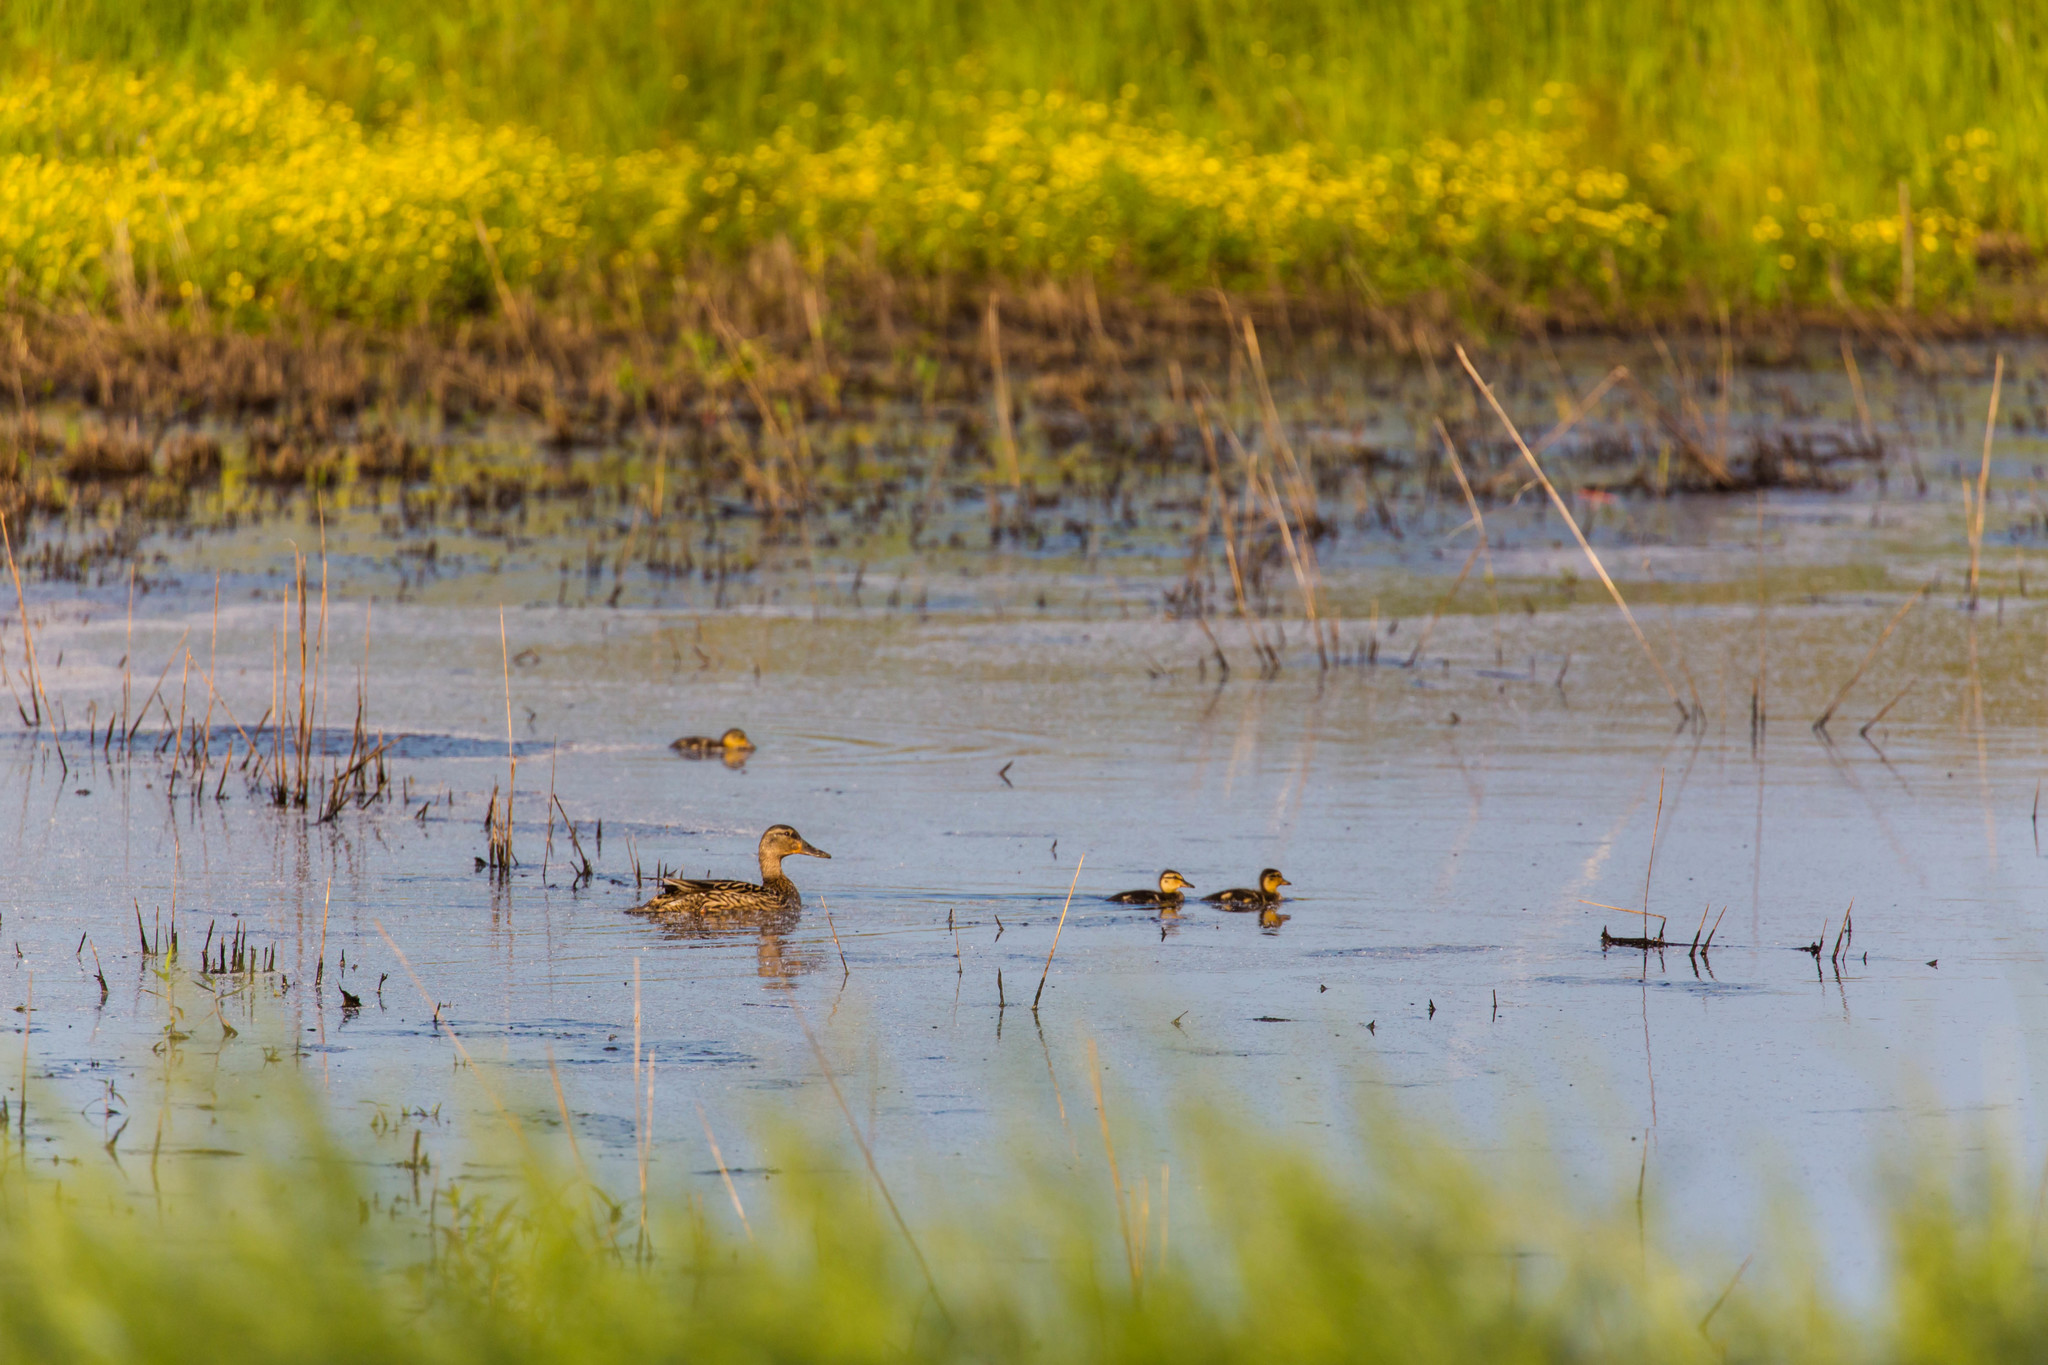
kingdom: Animalia
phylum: Chordata
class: Aves
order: Anseriformes
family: Anatidae
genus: Anas
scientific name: Anas platyrhynchos
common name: Mallard
